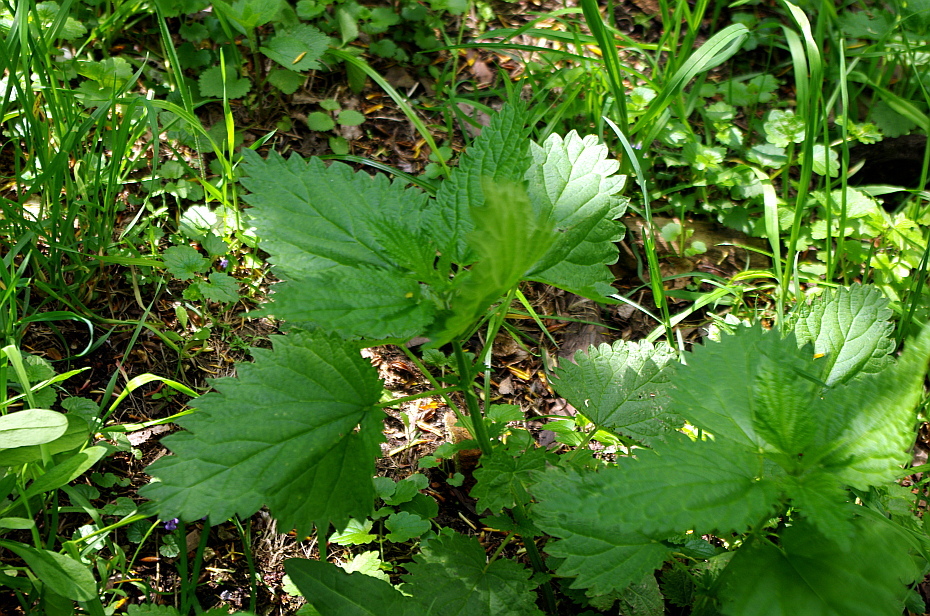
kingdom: Plantae
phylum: Tracheophyta
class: Magnoliopsida
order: Rosales
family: Urticaceae
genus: Urtica
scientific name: Urtica dioica
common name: Common nettle
